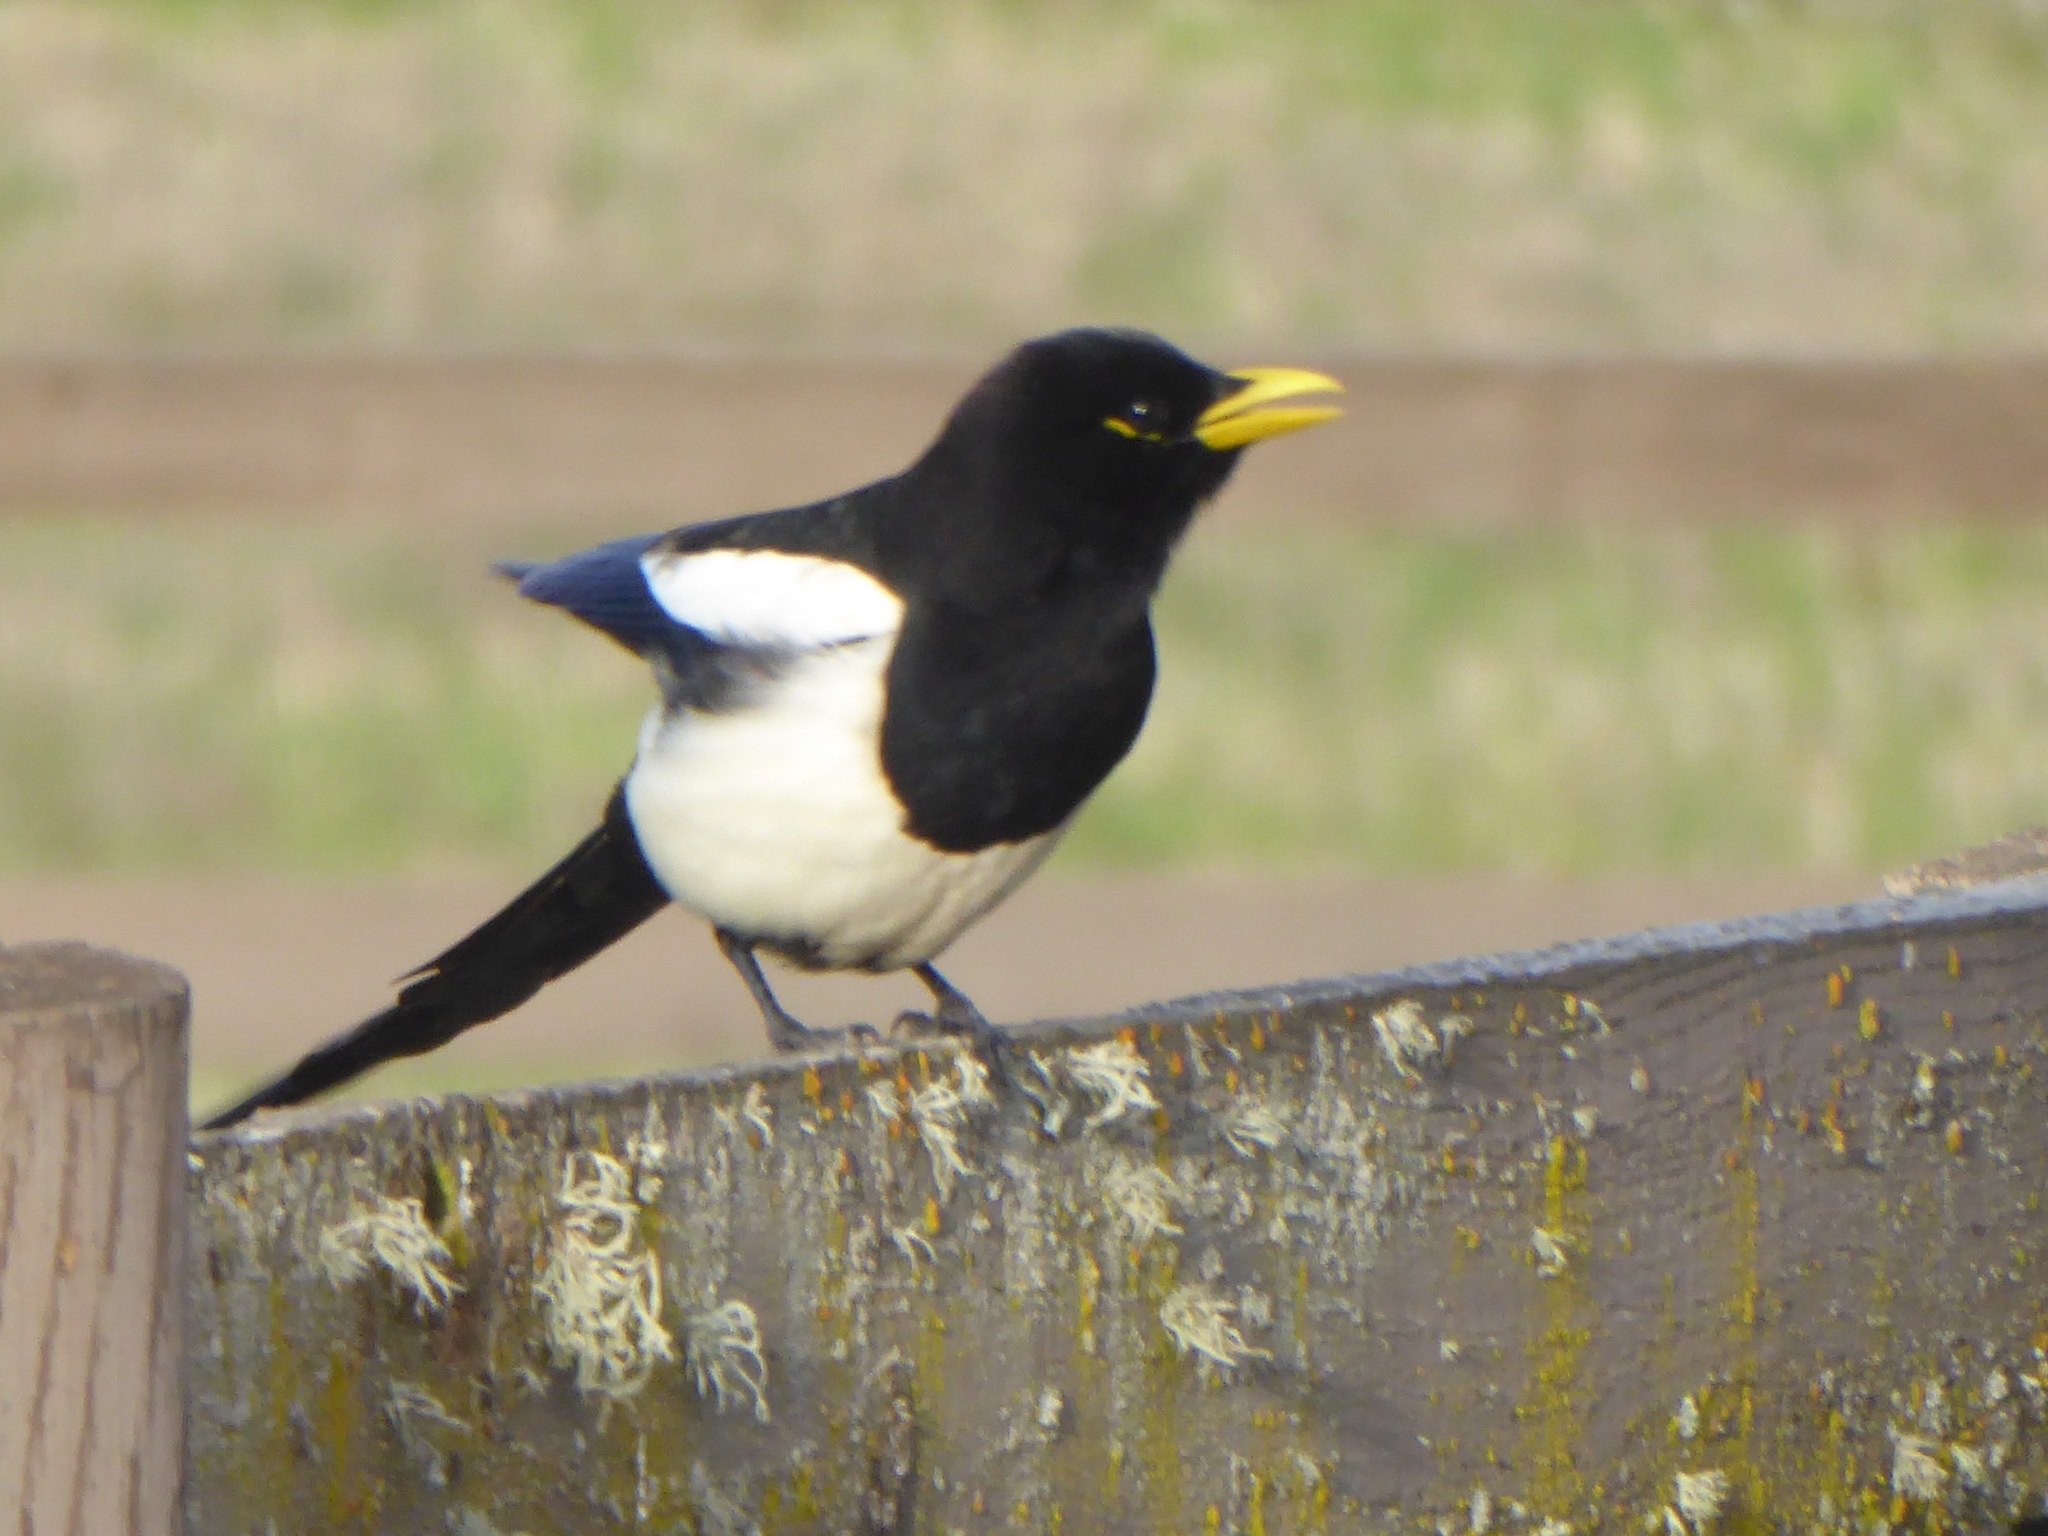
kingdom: Animalia
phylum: Chordata
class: Aves
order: Passeriformes
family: Corvidae
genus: Pica
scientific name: Pica nuttalli
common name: Yellow-billed magpie
